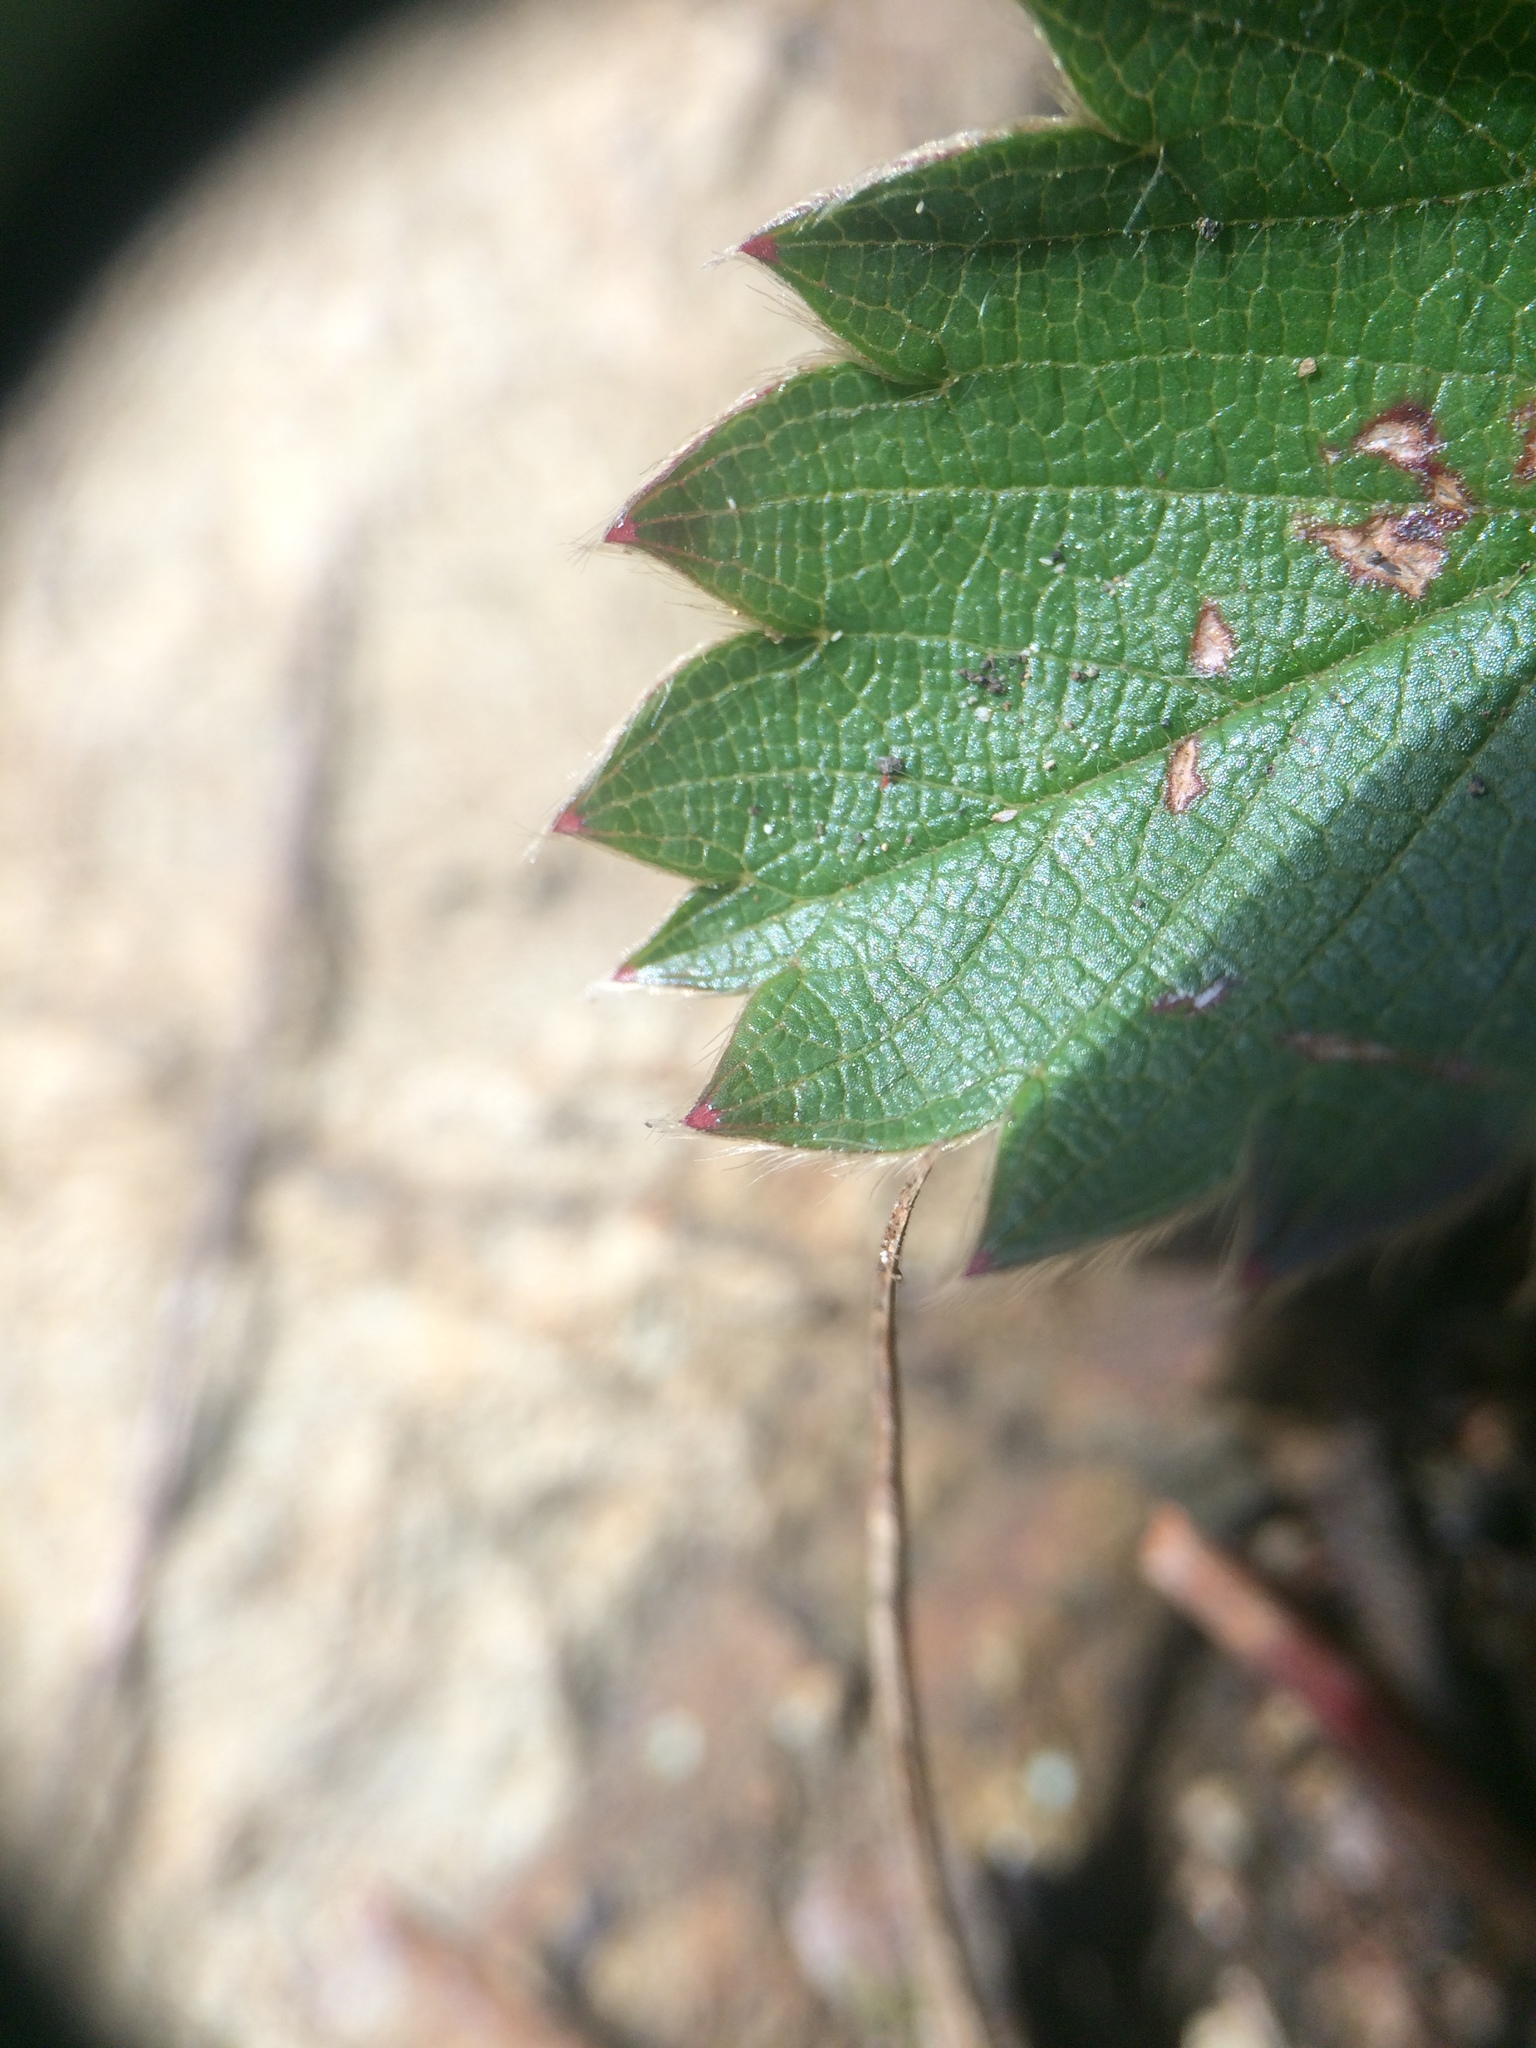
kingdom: Plantae
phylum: Tracheophyta
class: Magnoliopsida
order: Rosales
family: Rosaceae
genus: Fragaria
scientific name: Fragaria virginiana
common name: Thickleaved wild strawberry
